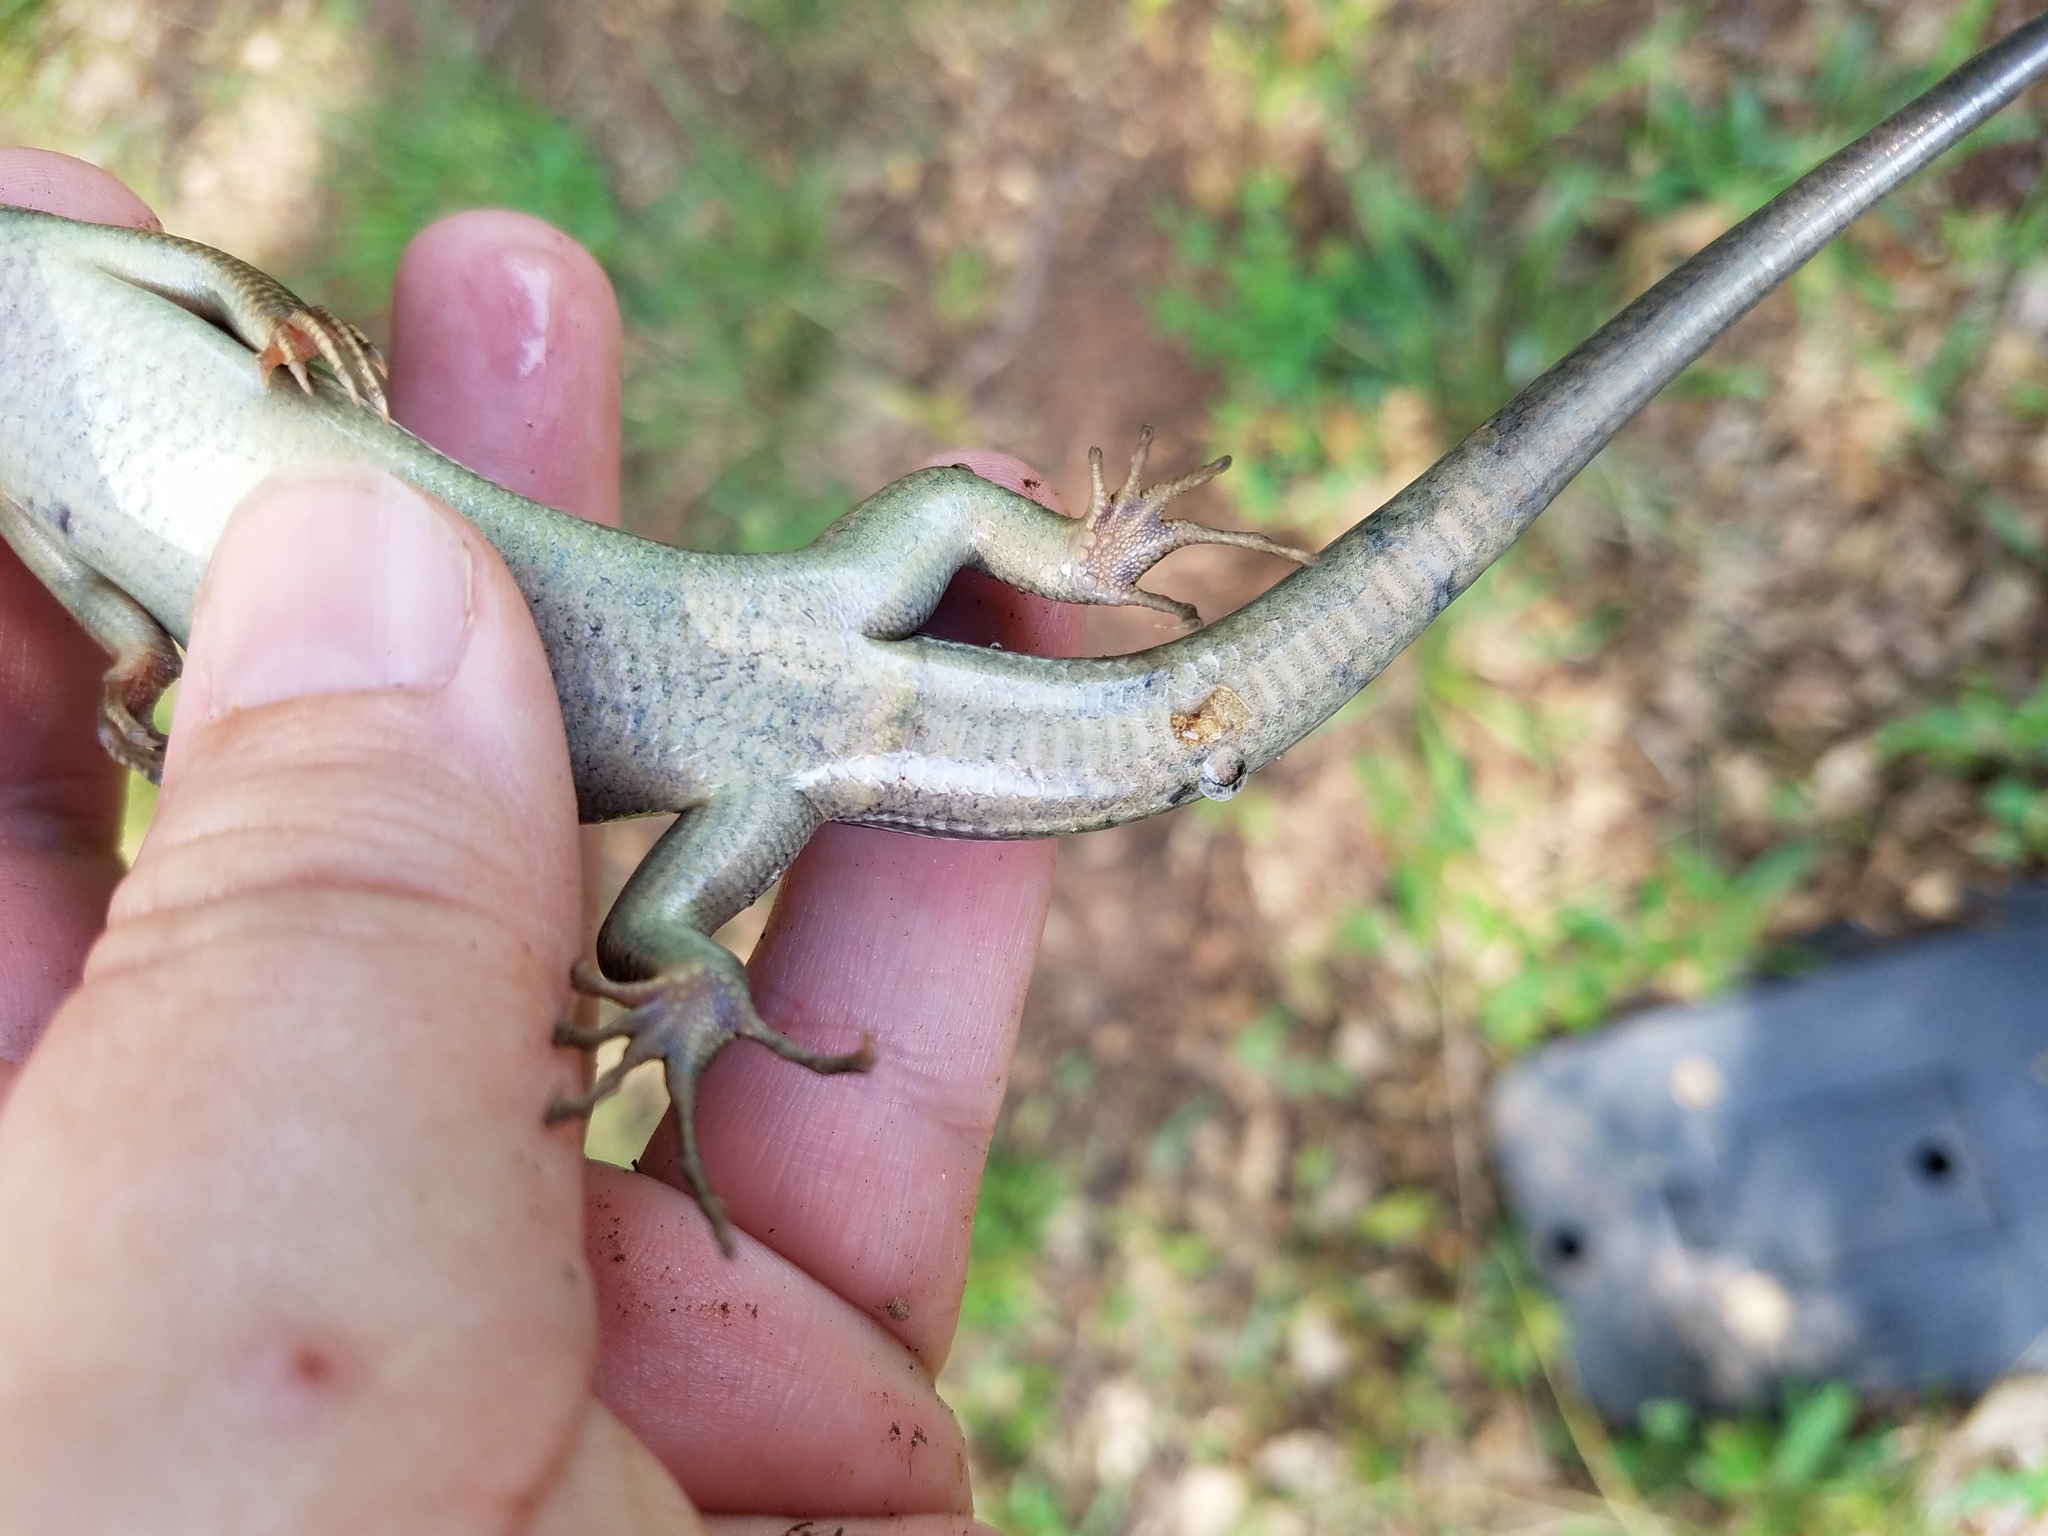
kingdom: Animalia
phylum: Chordata
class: Squamata
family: Scincidae
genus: Plestiodon
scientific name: Plestiodon laticeps
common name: Broadhead skink
